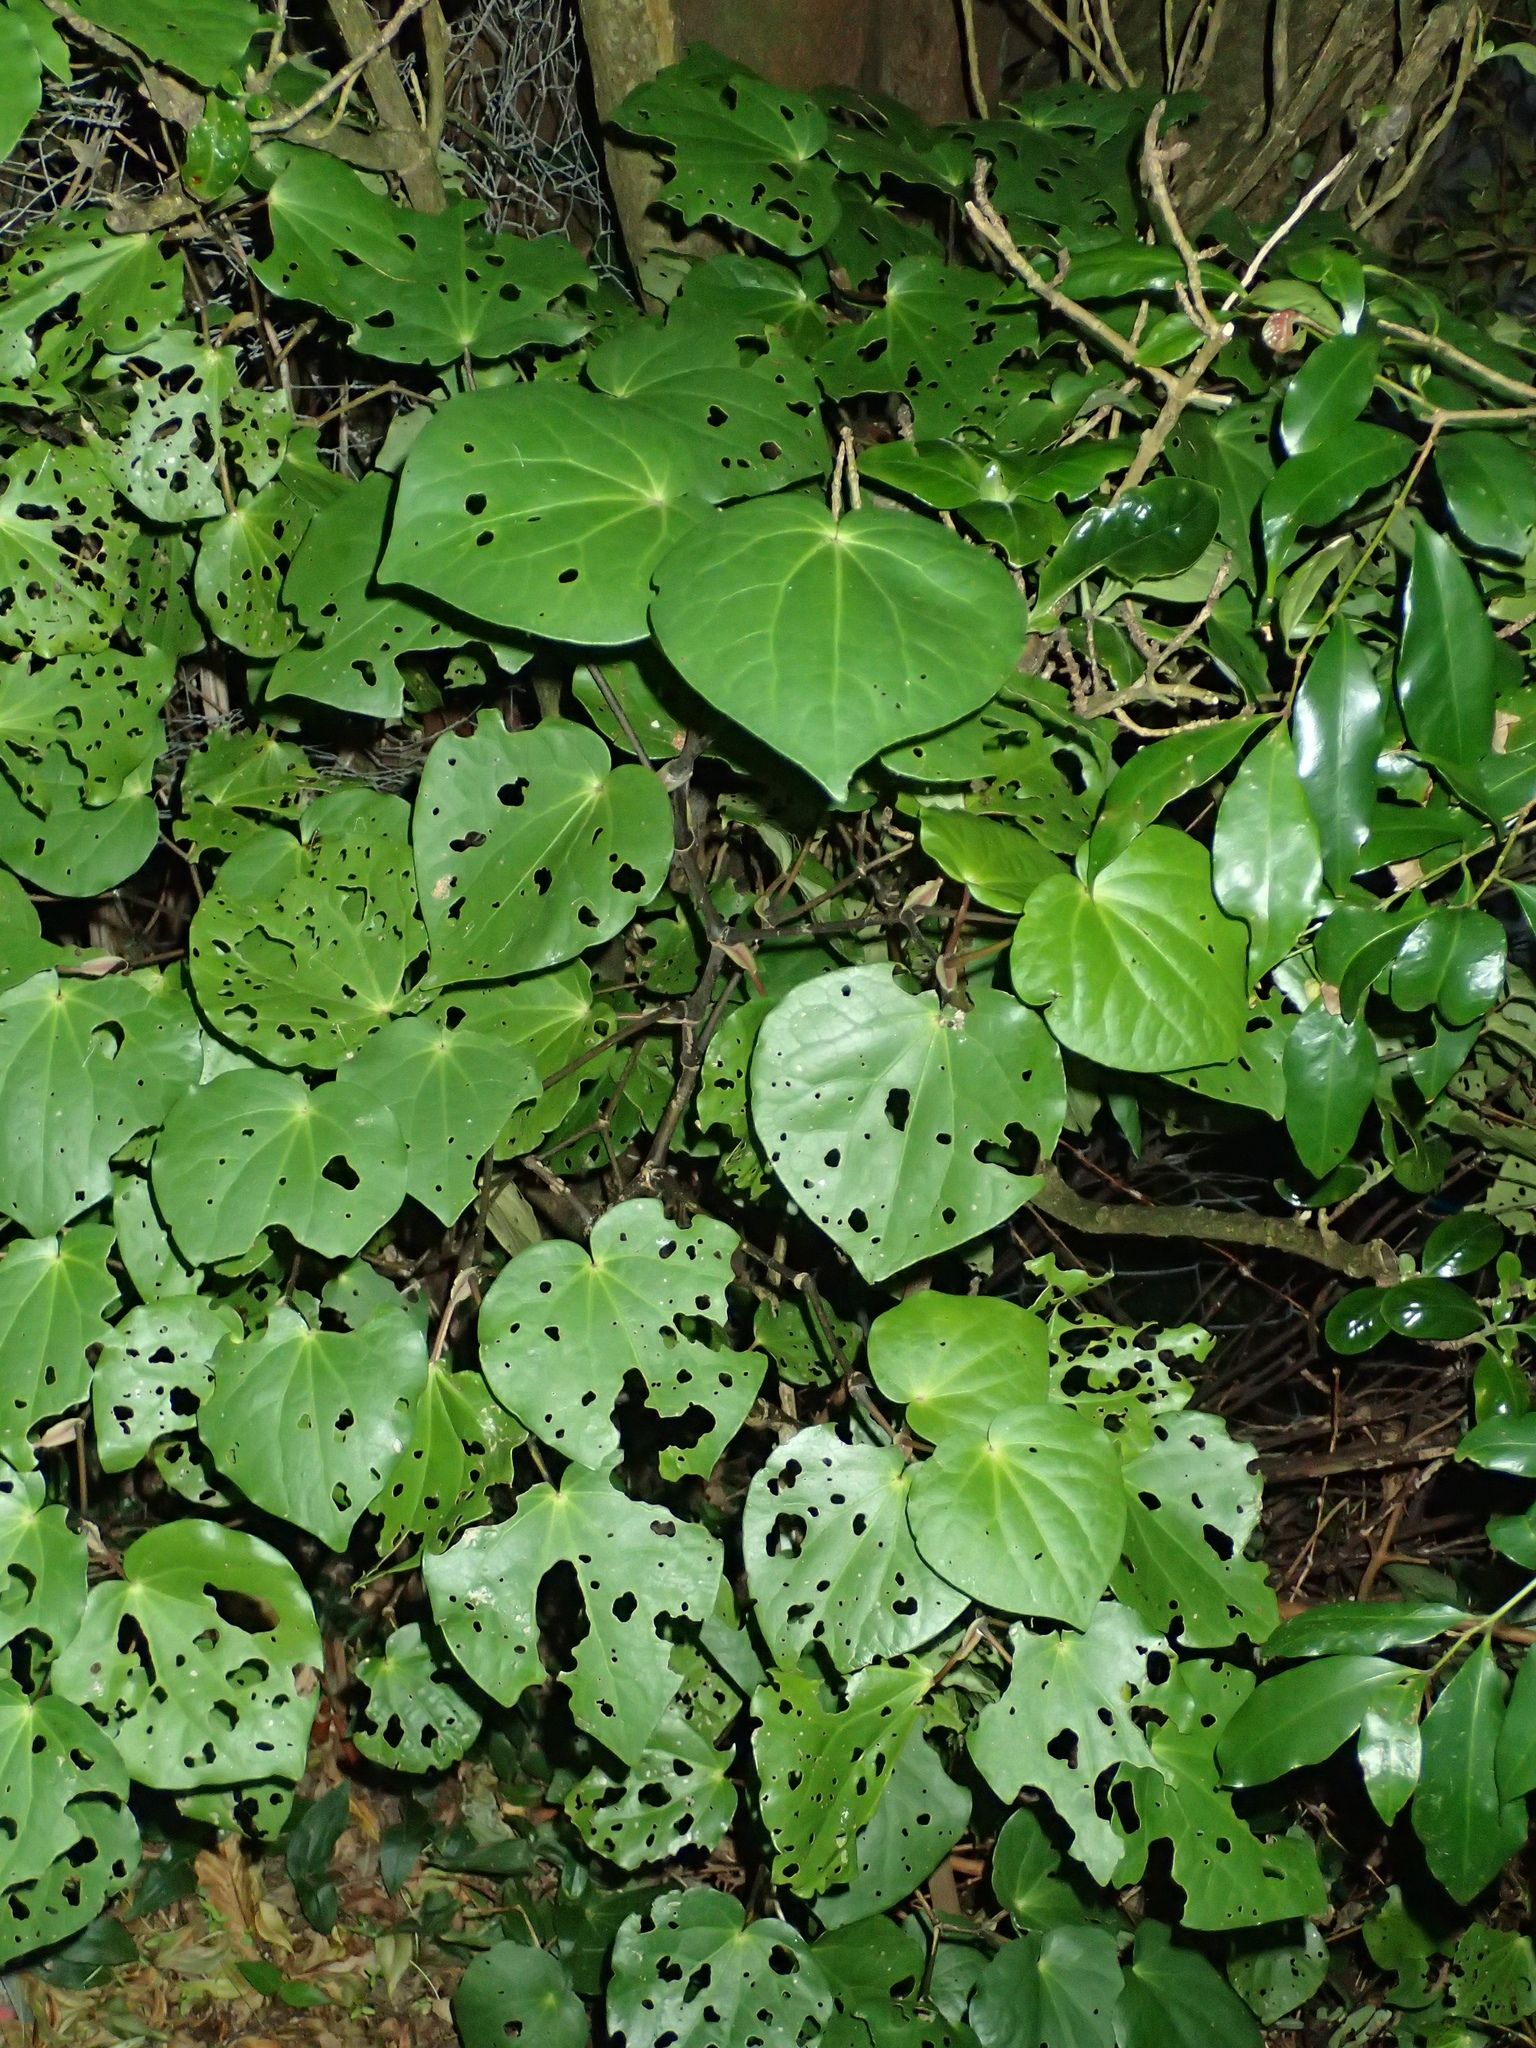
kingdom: Plantae
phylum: Tracheophyta
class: Magnoliopsida
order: Piperales
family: Piperaceae
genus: Macropiper
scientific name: Macropiper excelsum
